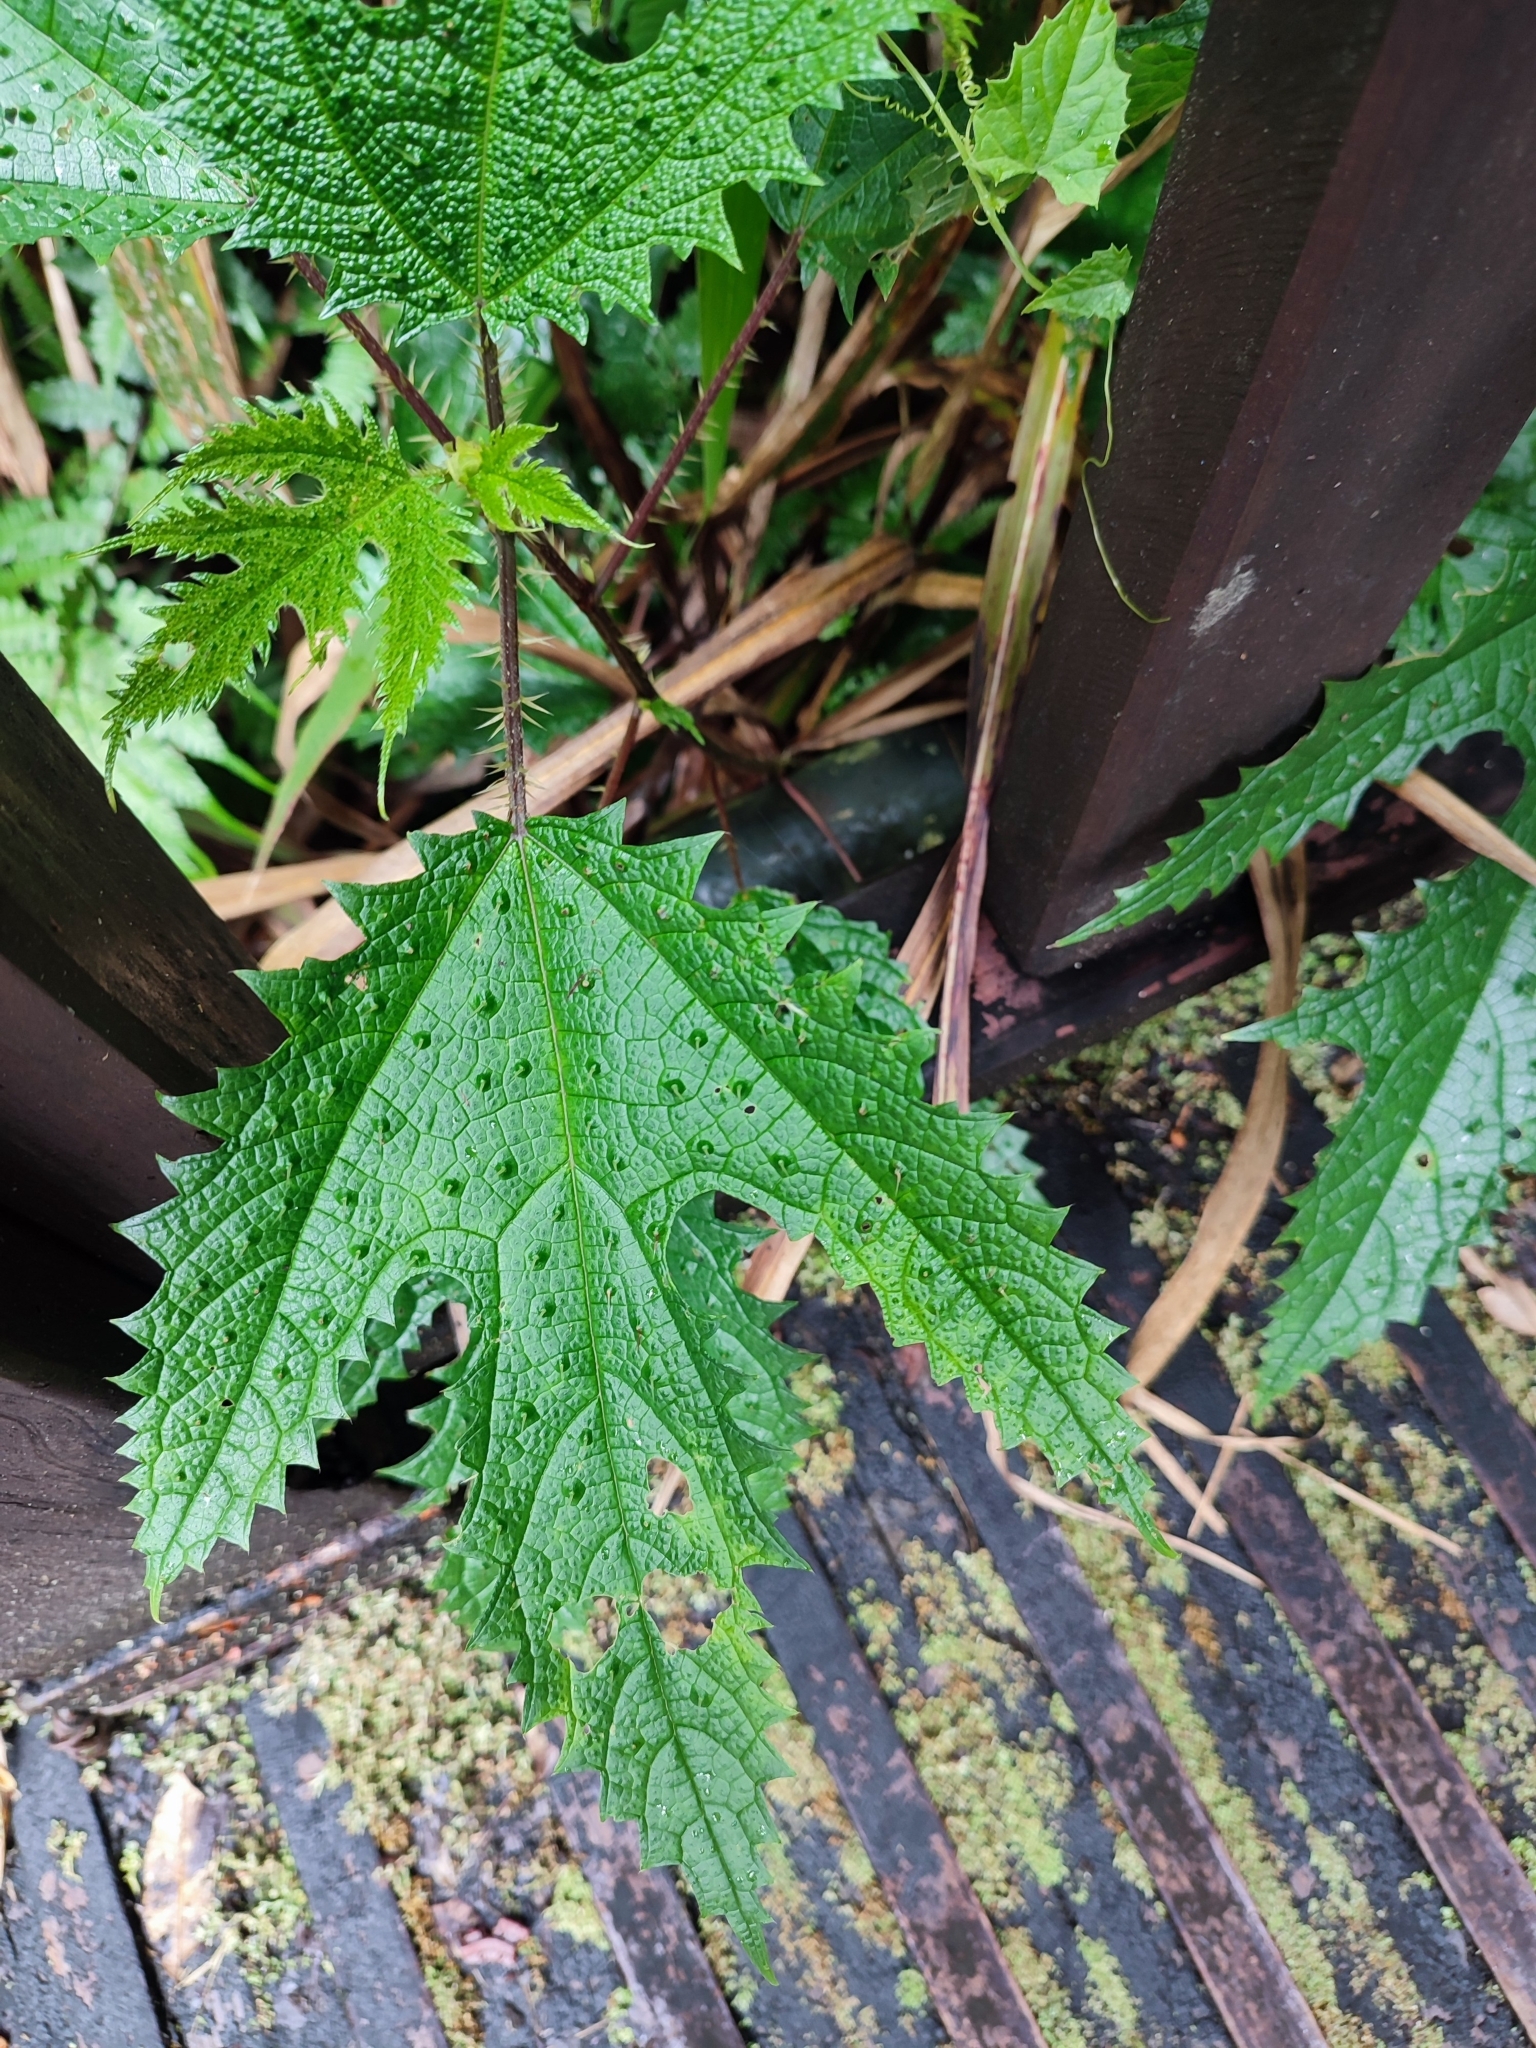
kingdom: Plantae
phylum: Tracheophyta
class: Magnoliopsida
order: Rosales
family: Urticaceae
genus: Girardinia
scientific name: Girardinia diversifolia
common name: Himalayan-nettle
